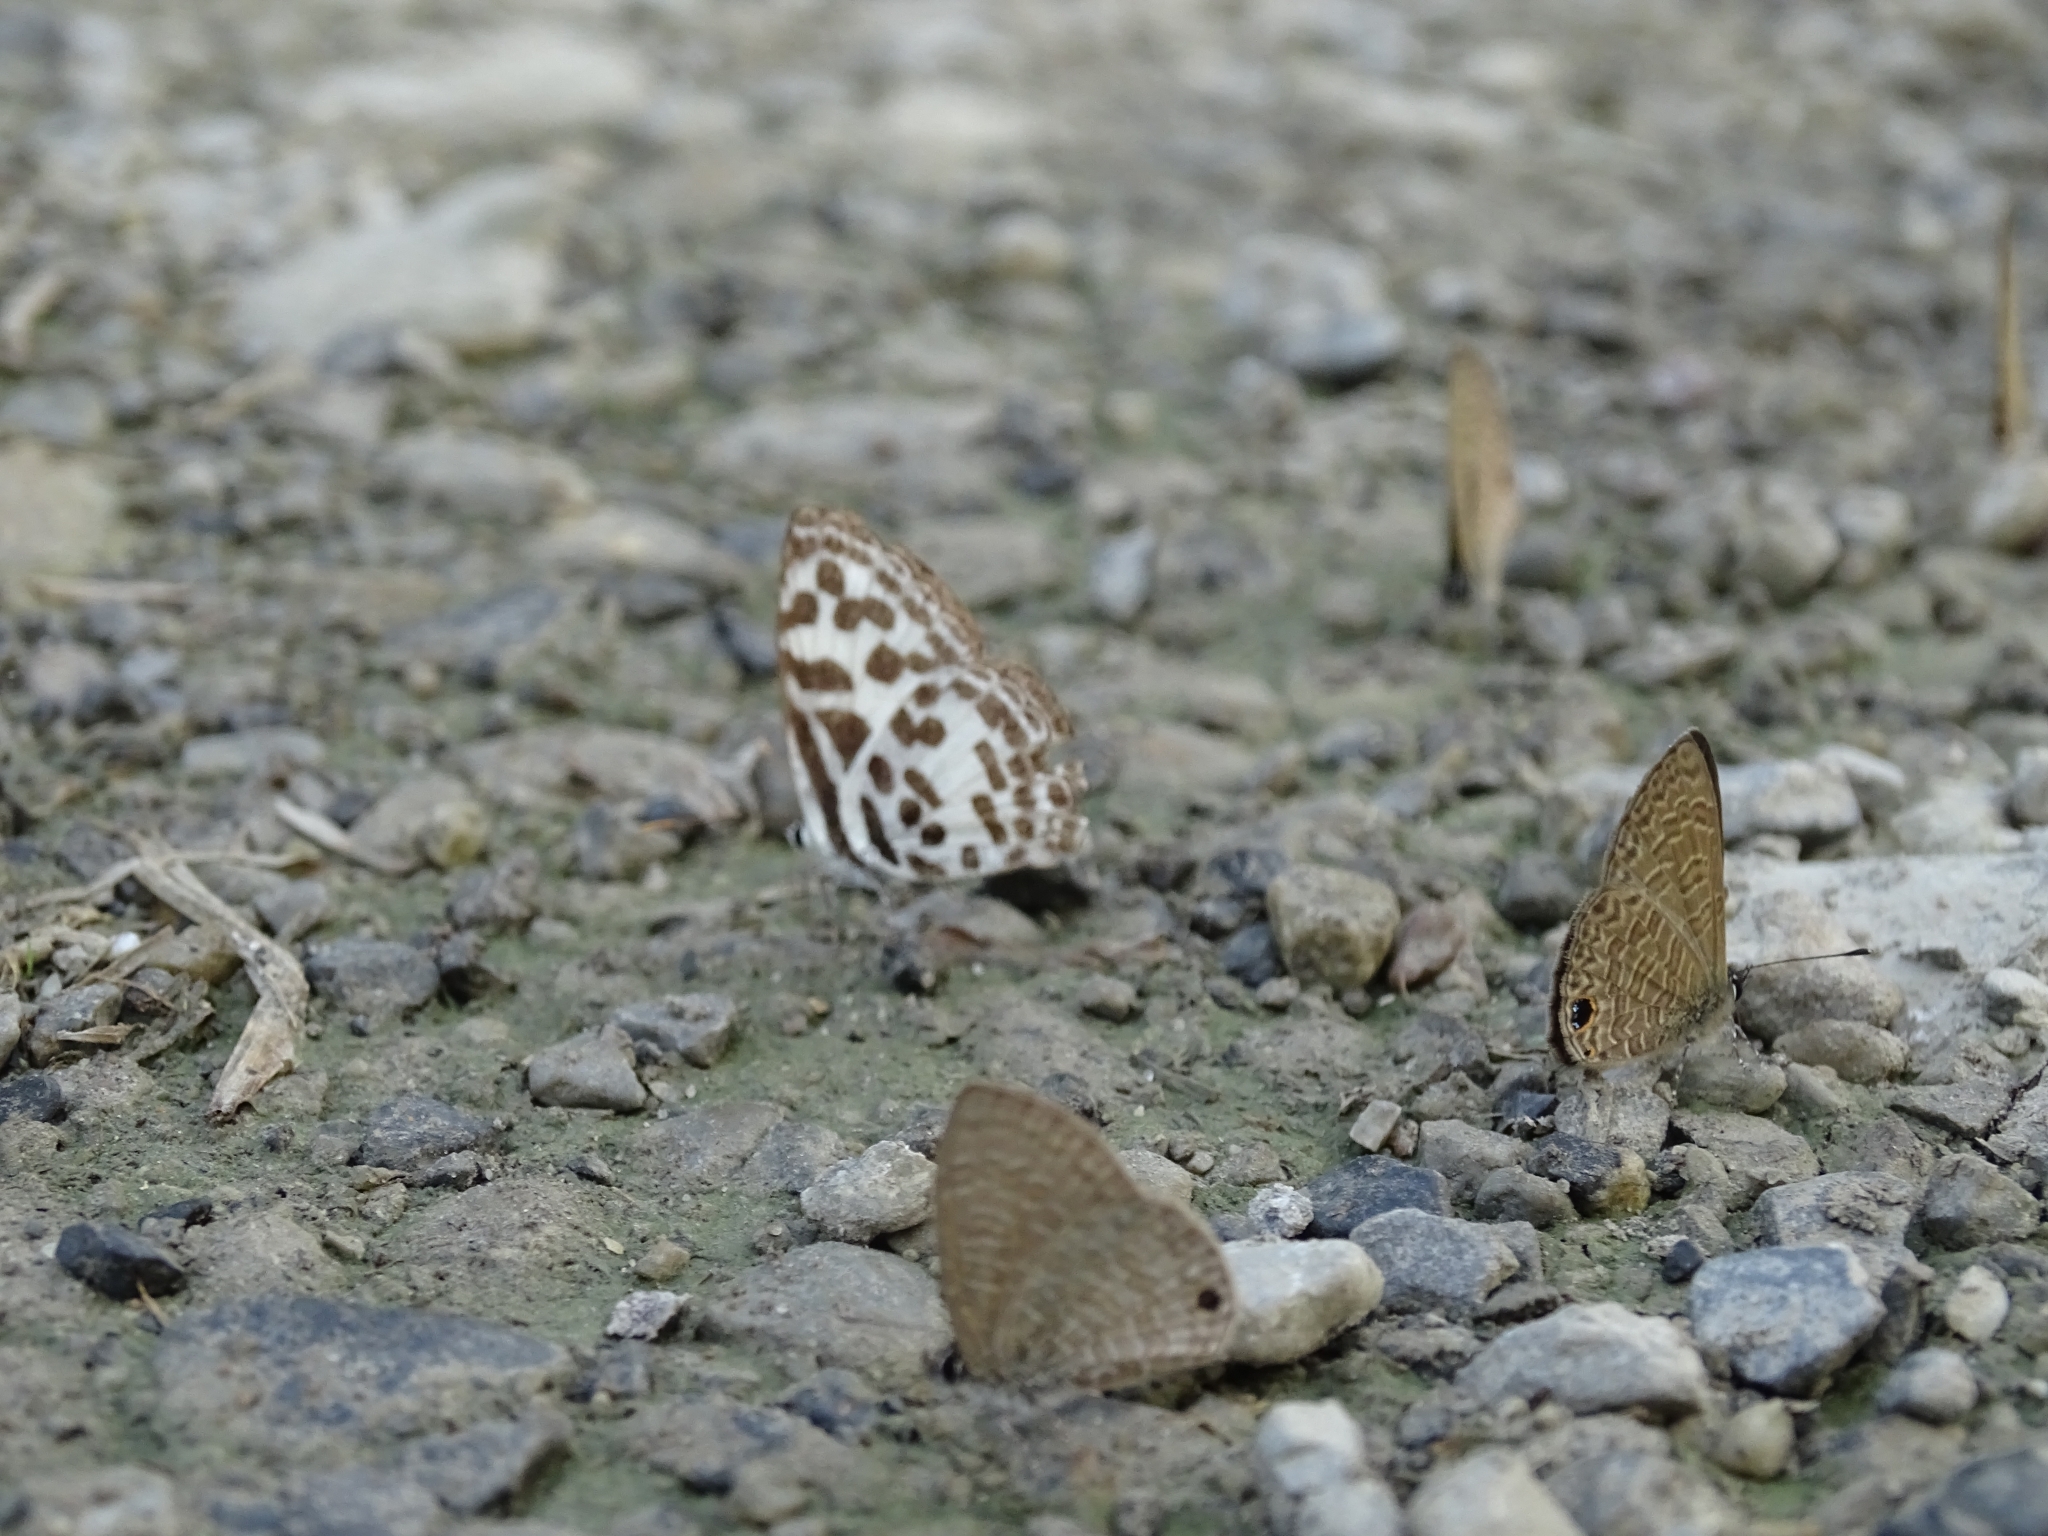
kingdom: Animalia
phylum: Arthropoda
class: Insecta
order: Lepidoptera
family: Lycaenidae
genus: Castalius
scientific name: Castalius rosimon
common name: Common pierrot
